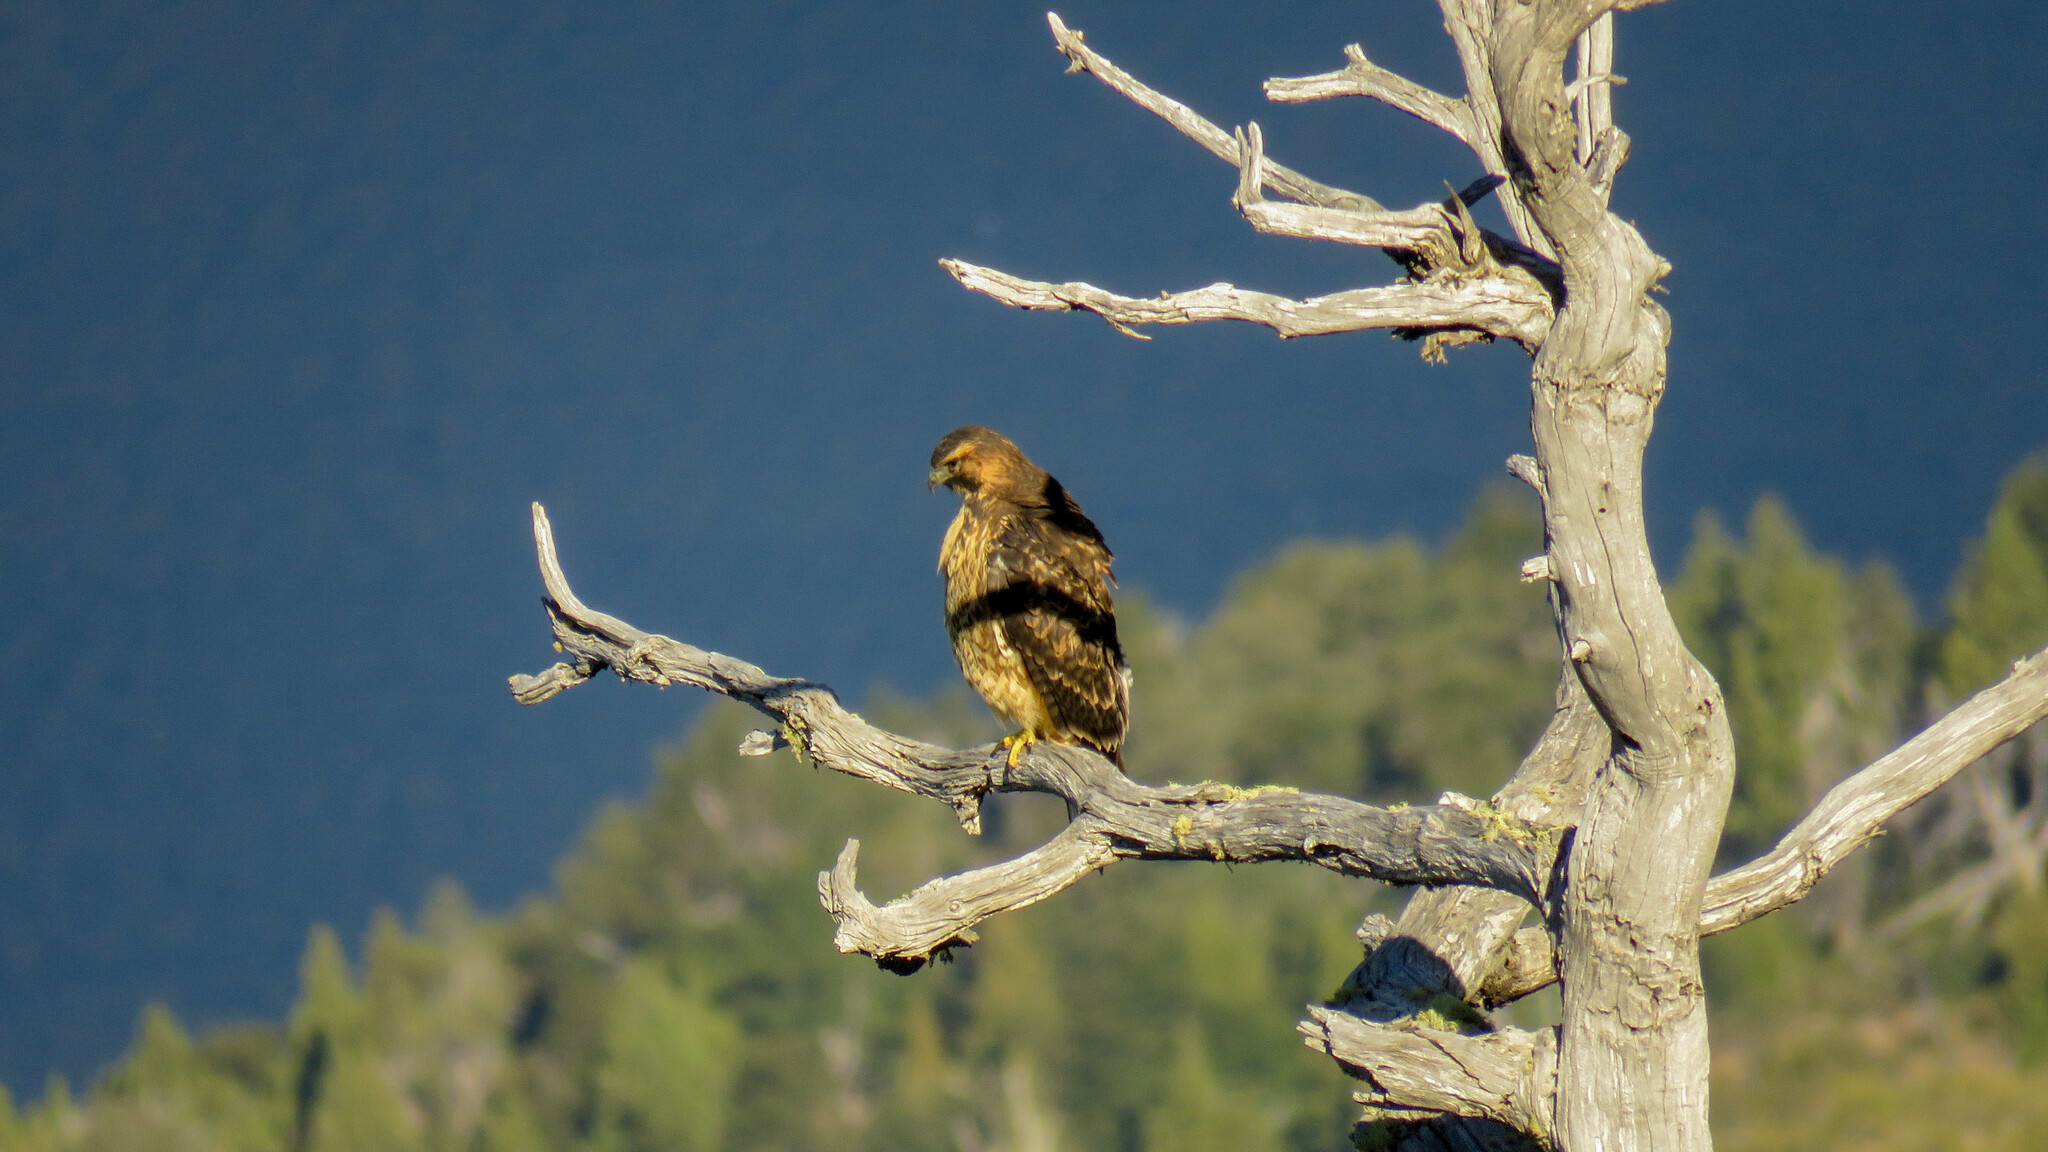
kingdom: Animalia
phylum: Chordata
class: Aves
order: Accipitriformes
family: Accipitridae
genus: Buteo
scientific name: Buteo polyosoma
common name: Variable hawk
